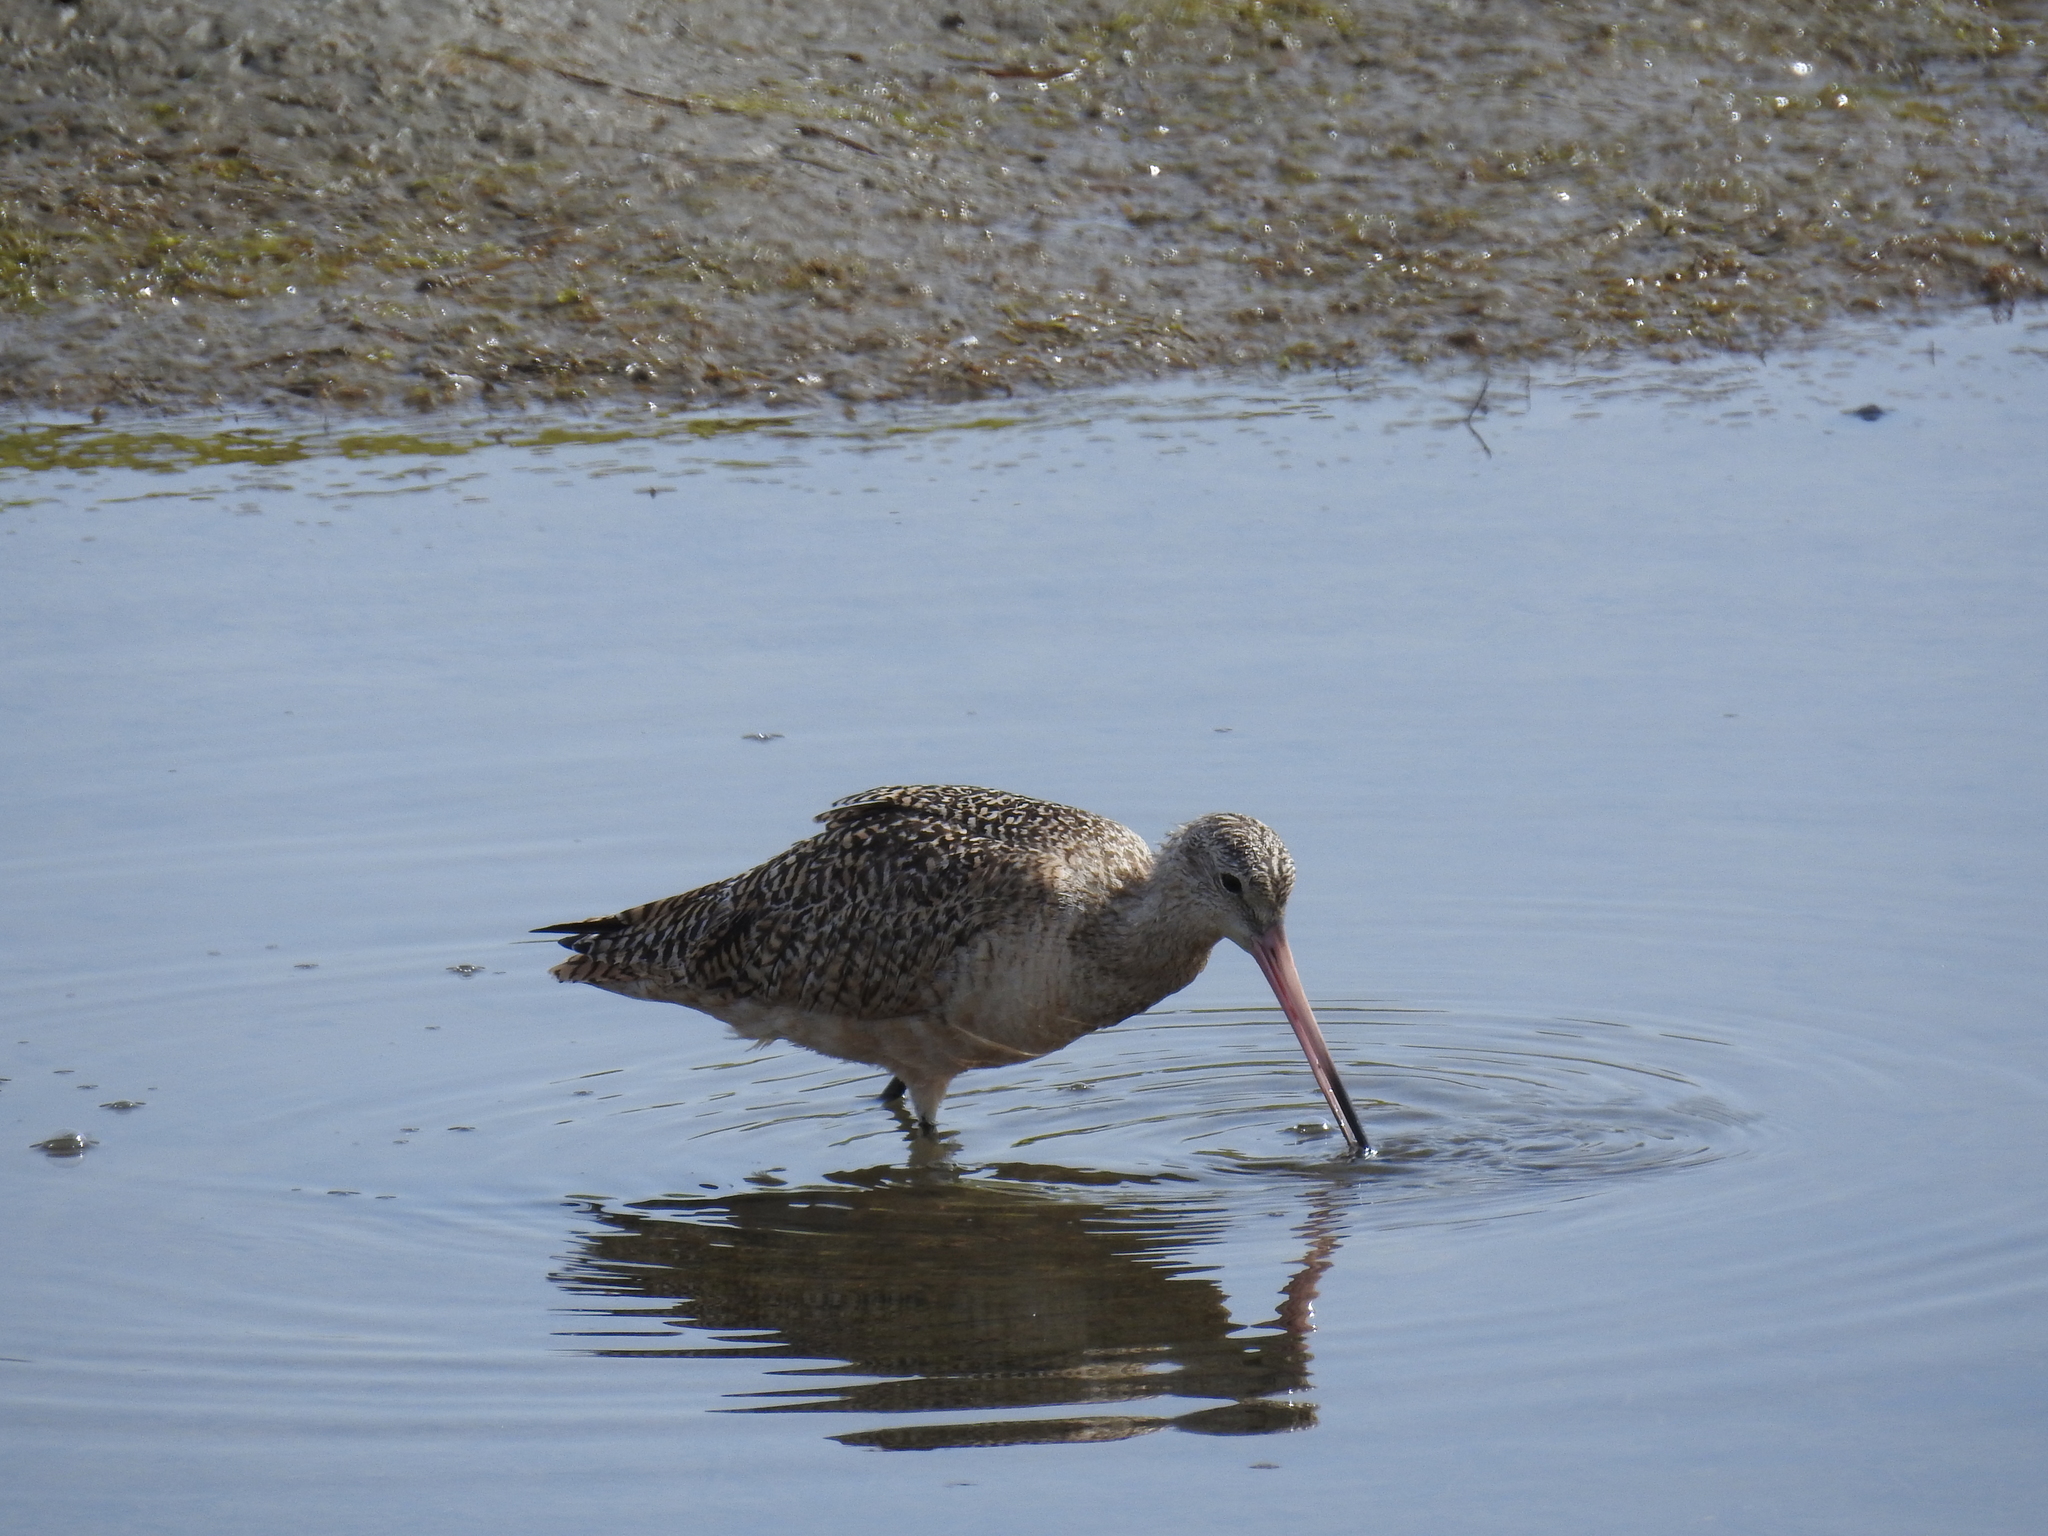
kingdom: Animalia
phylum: Chordata
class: Aves
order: Charadriiformes
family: Scolopacidae
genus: Limosa
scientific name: Limosa fedoa
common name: Marbled godwit
